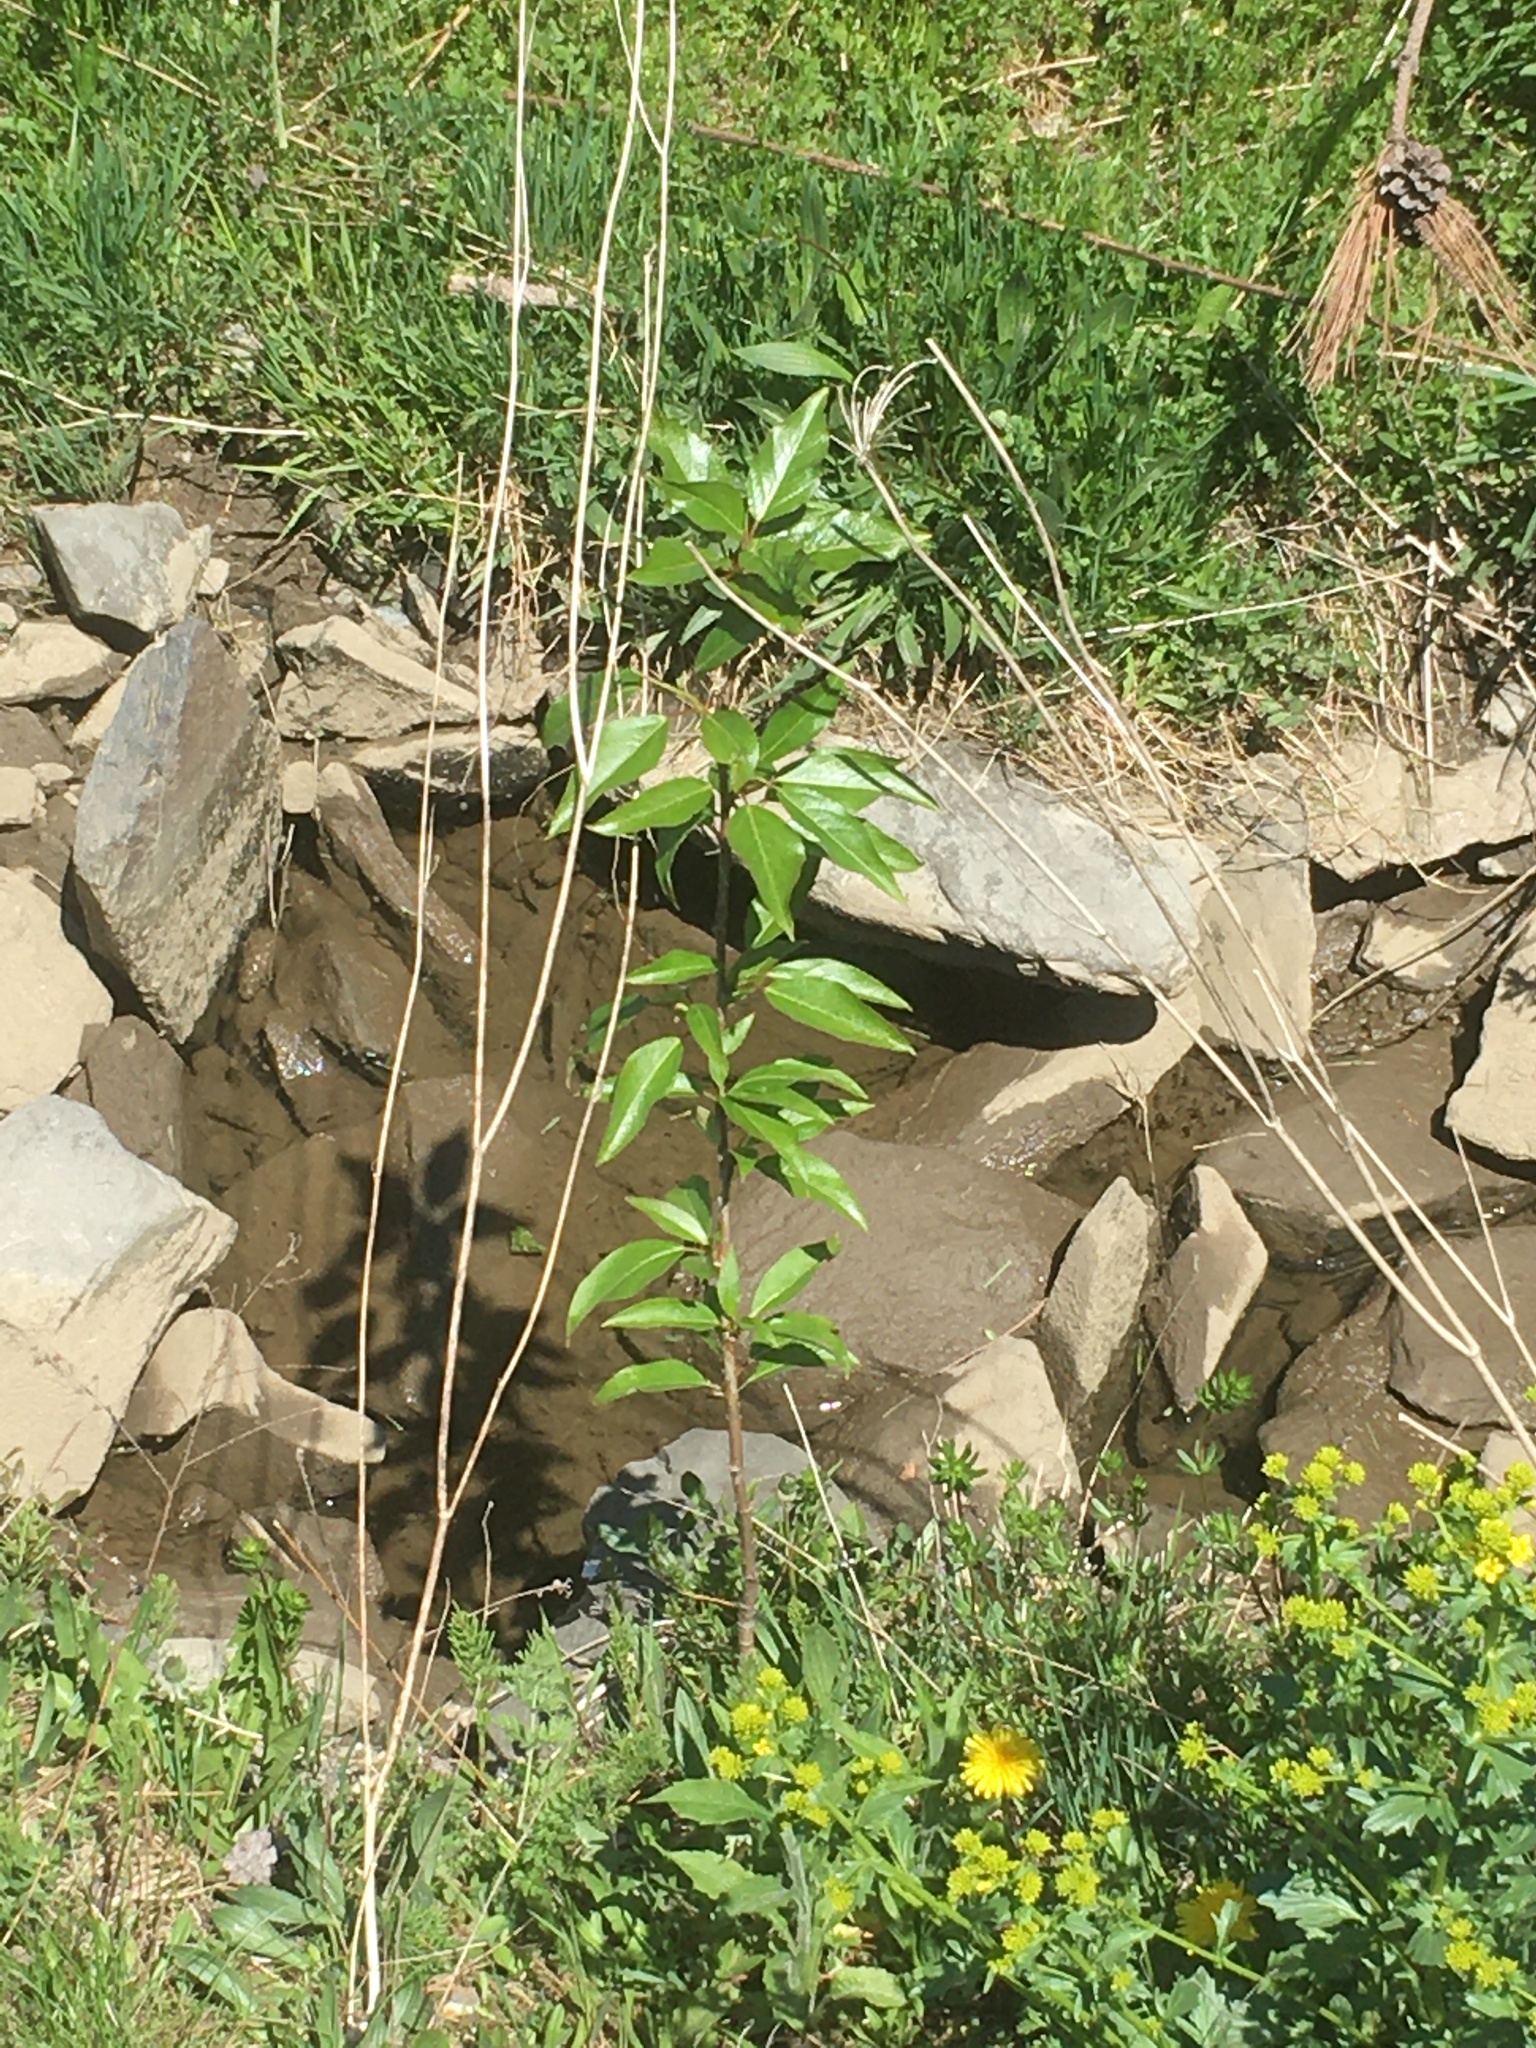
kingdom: Plantae
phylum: Tracheophyta
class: Magnoliopsida
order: Malpighiales
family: Salicaceae
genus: Populus
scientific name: Populus balsamifera
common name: Balsam poplar
